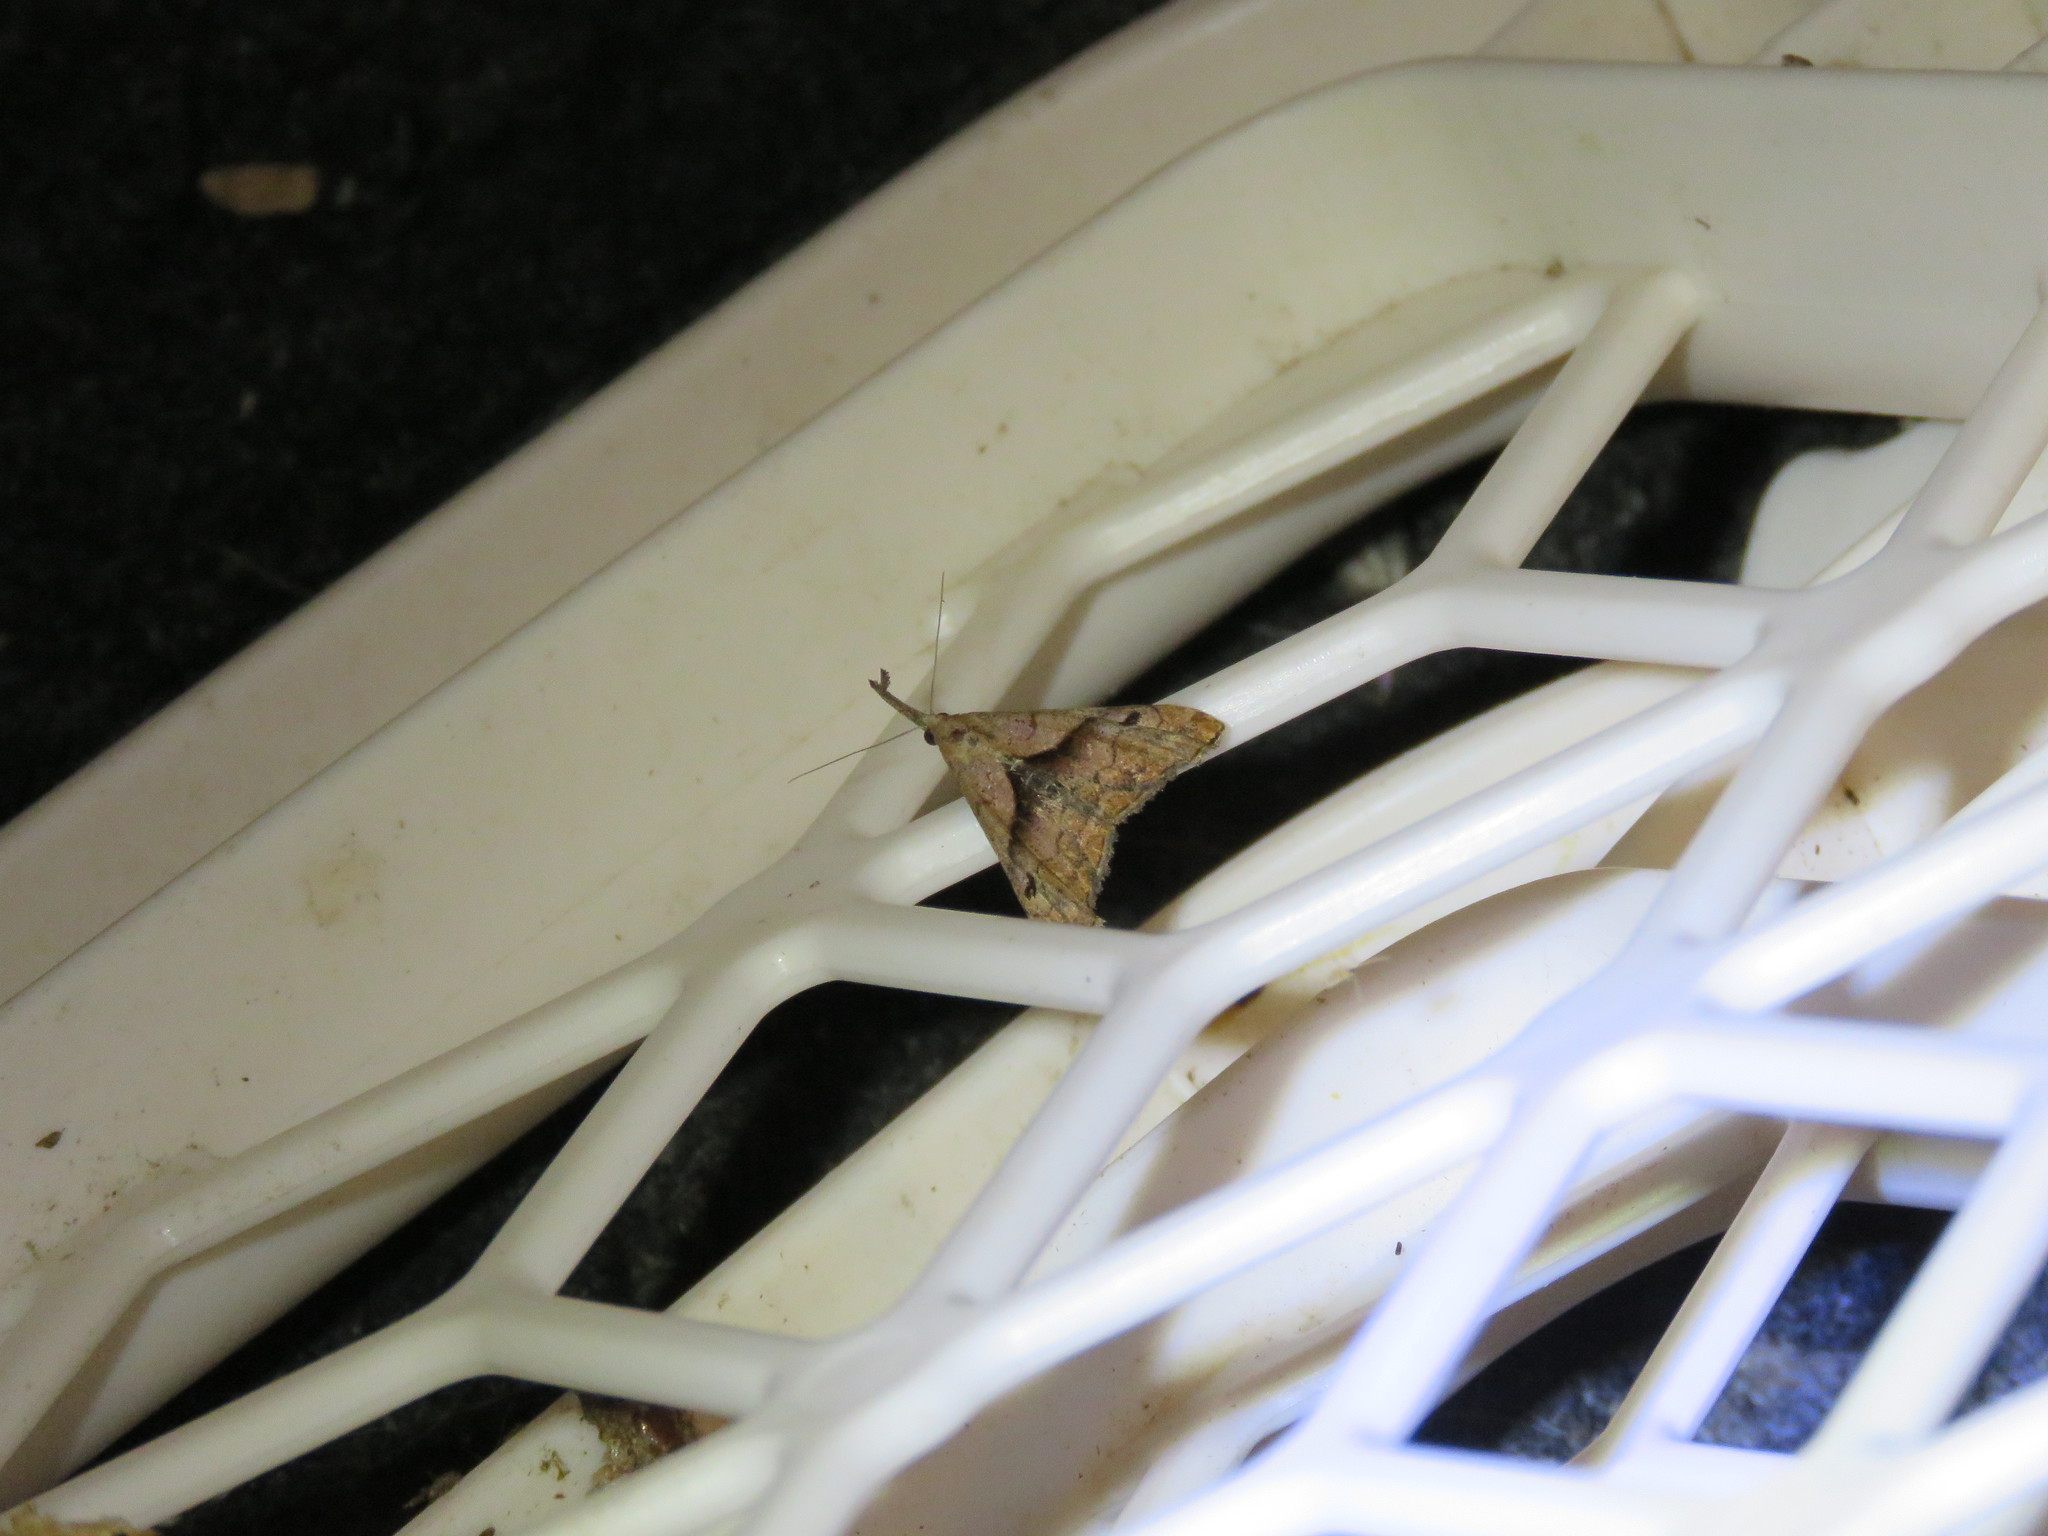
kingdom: Animalia
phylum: Arthropoda
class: Insecta
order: Lepidoptera
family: Erebidae
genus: Palthis
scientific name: Palthis angulalis
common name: Dark-spotted palthis moth
